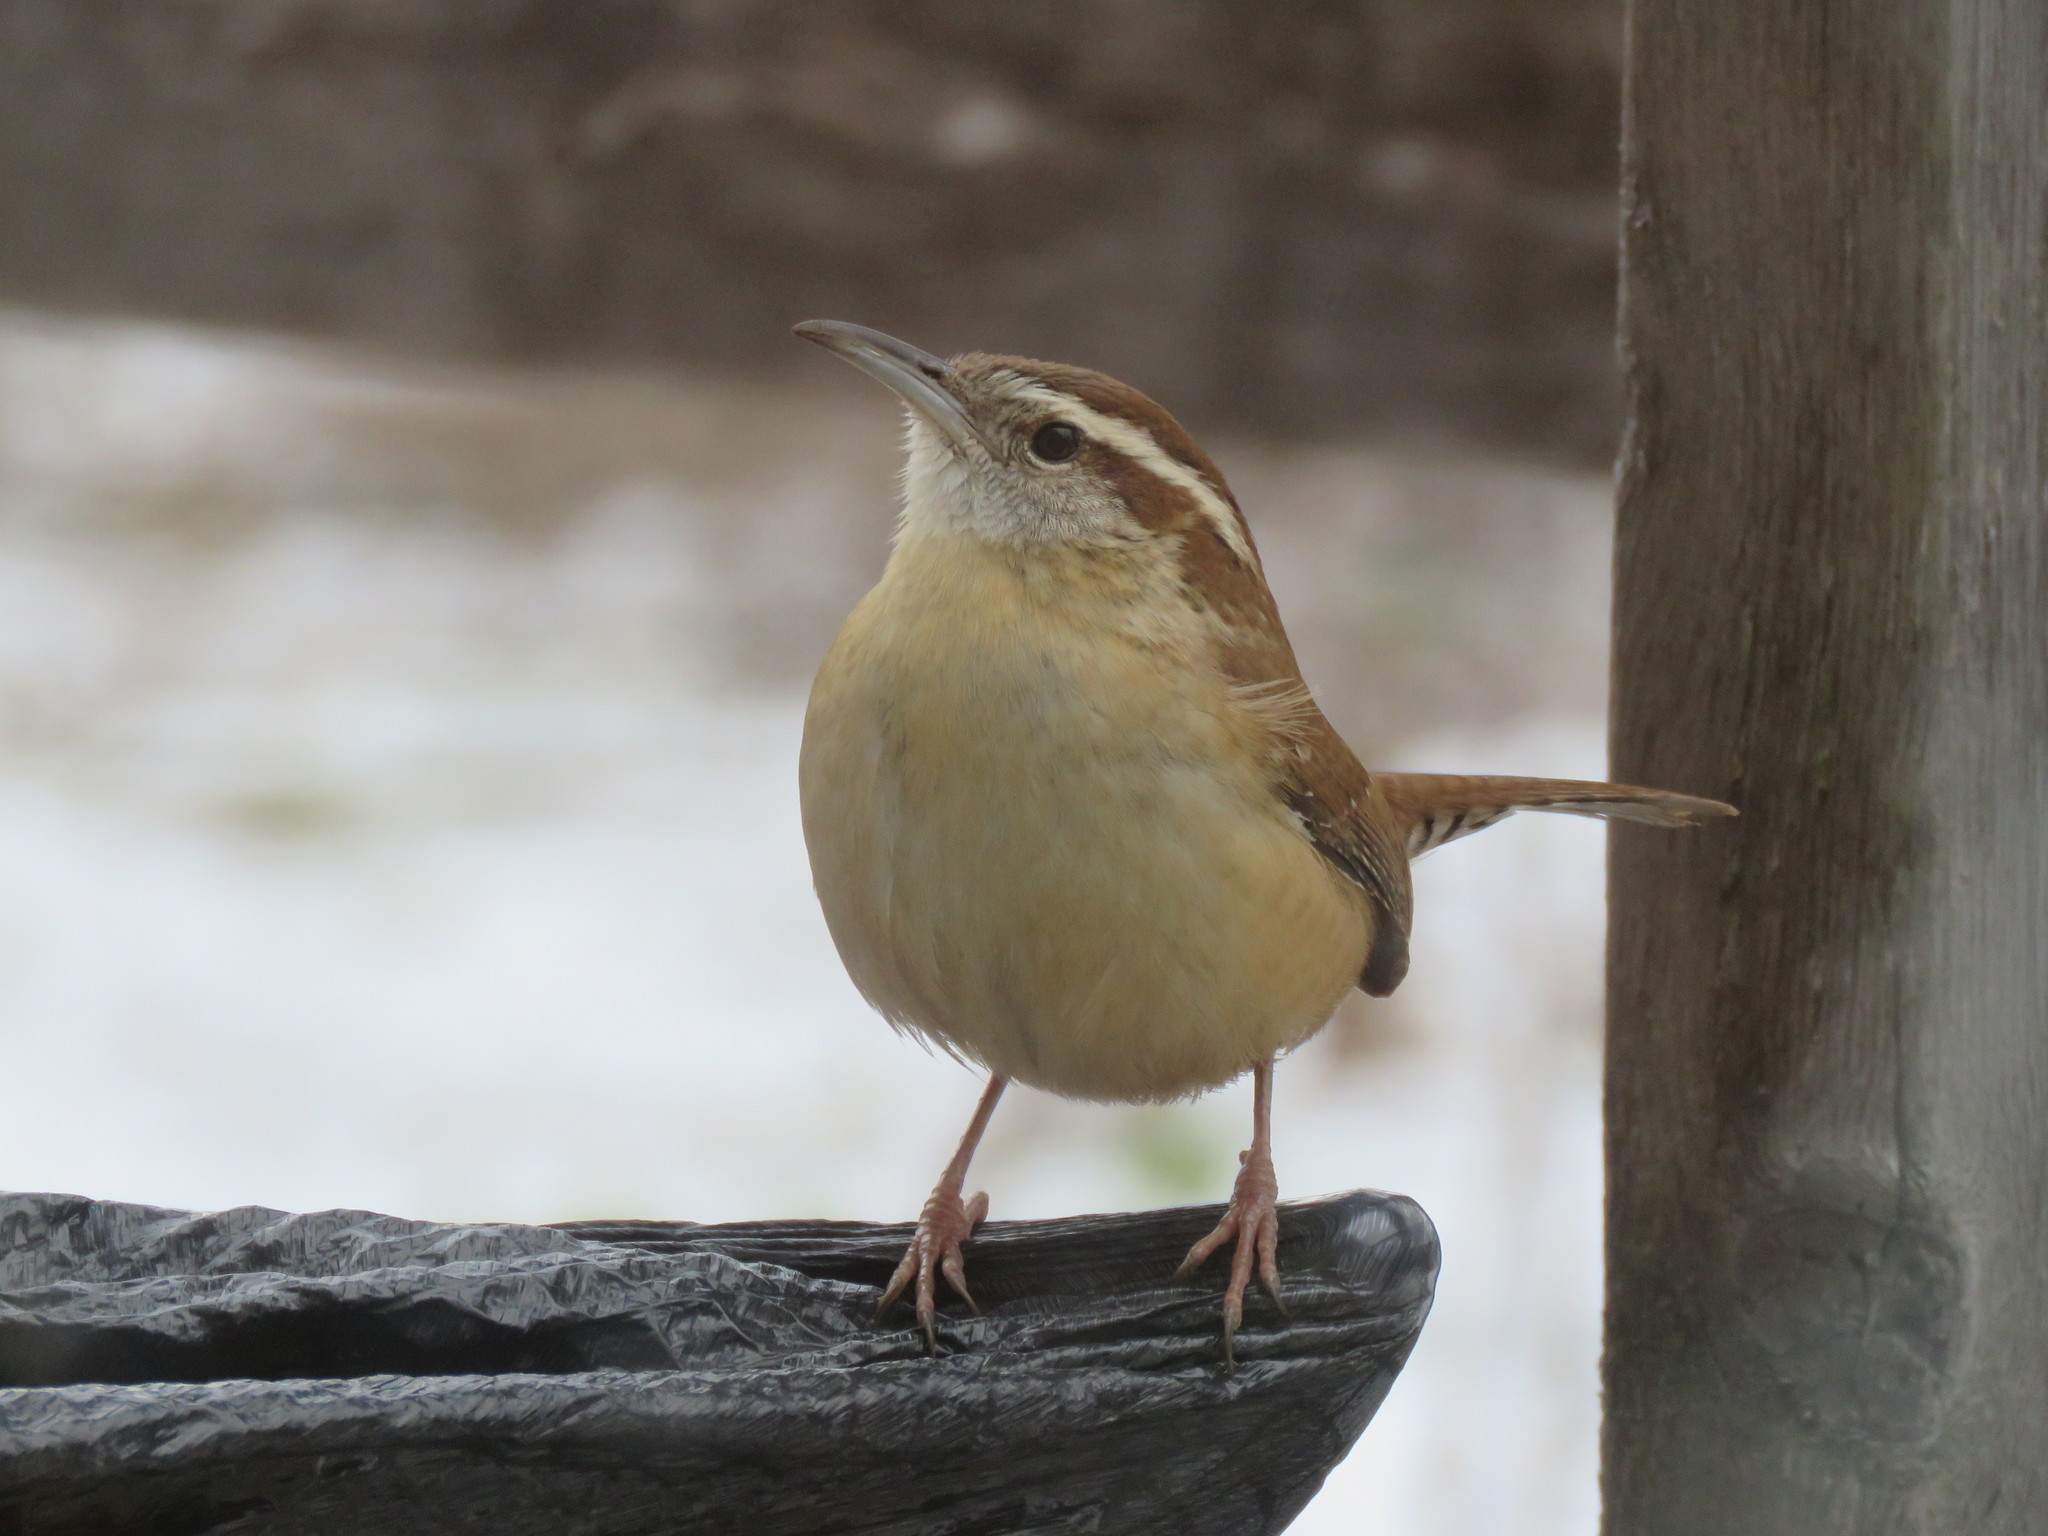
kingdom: Animalia
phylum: Chordata
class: Aves
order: Passeriformes
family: Troglodytidae
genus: Thryothorus
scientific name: Thryothorus ludovicianus
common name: Carolina wren
